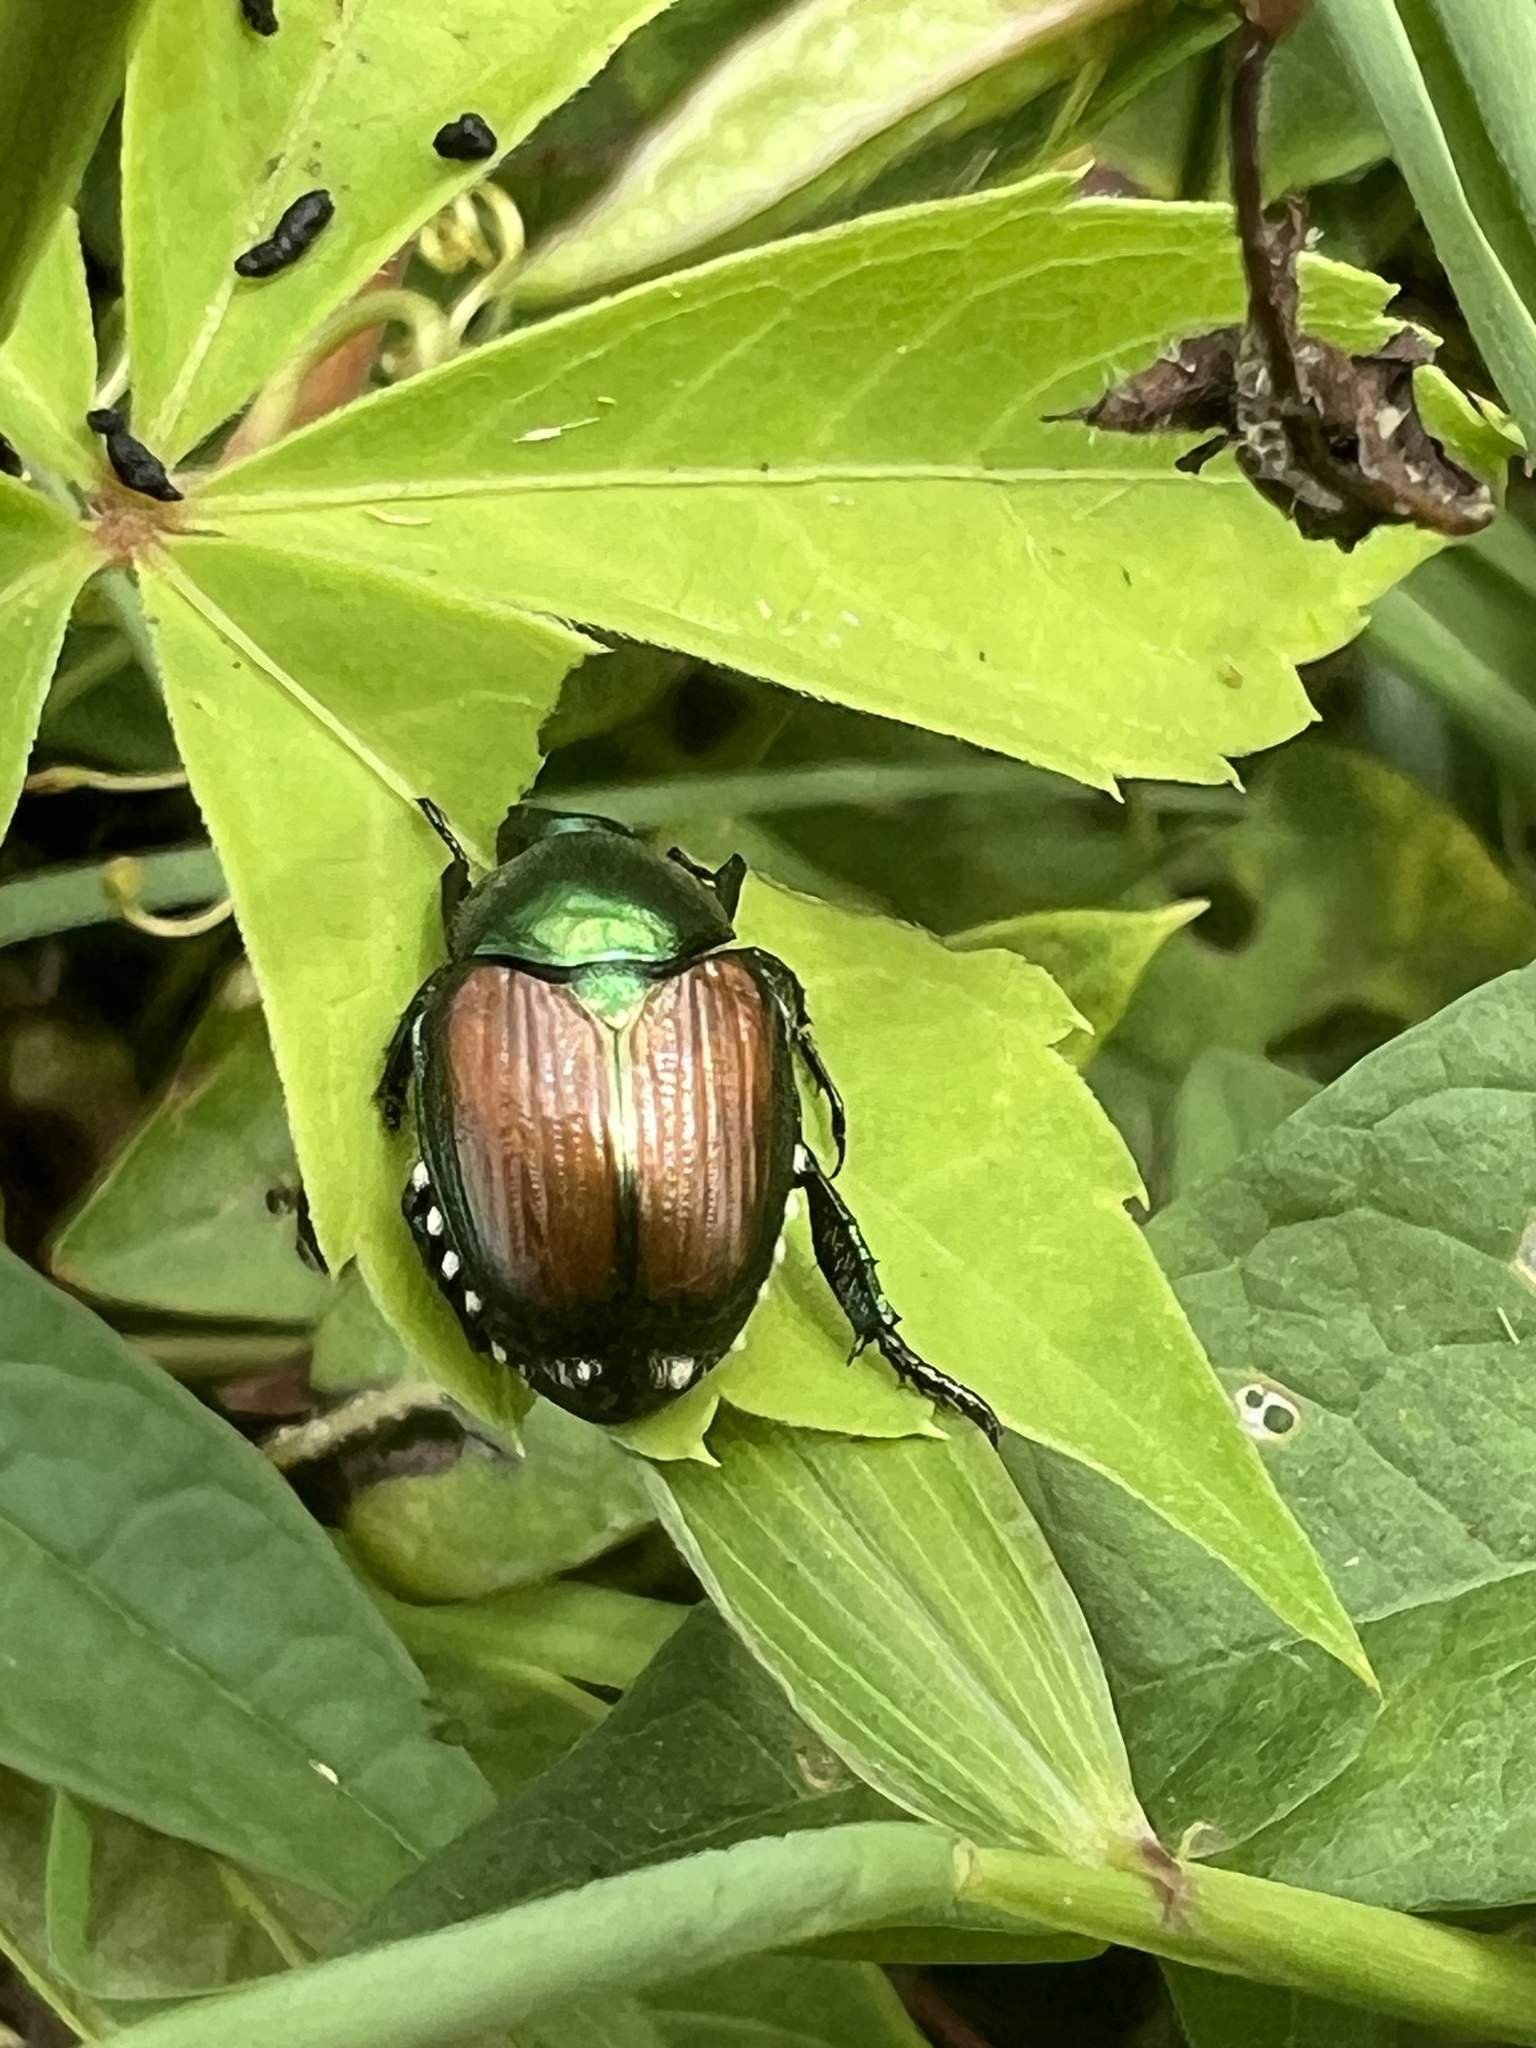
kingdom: Animalia
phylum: Arthropoda
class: Insecta
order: Coleoptera
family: Scarabaeidae
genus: Popillia
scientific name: Popillia japonica
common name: Japanese beetle
